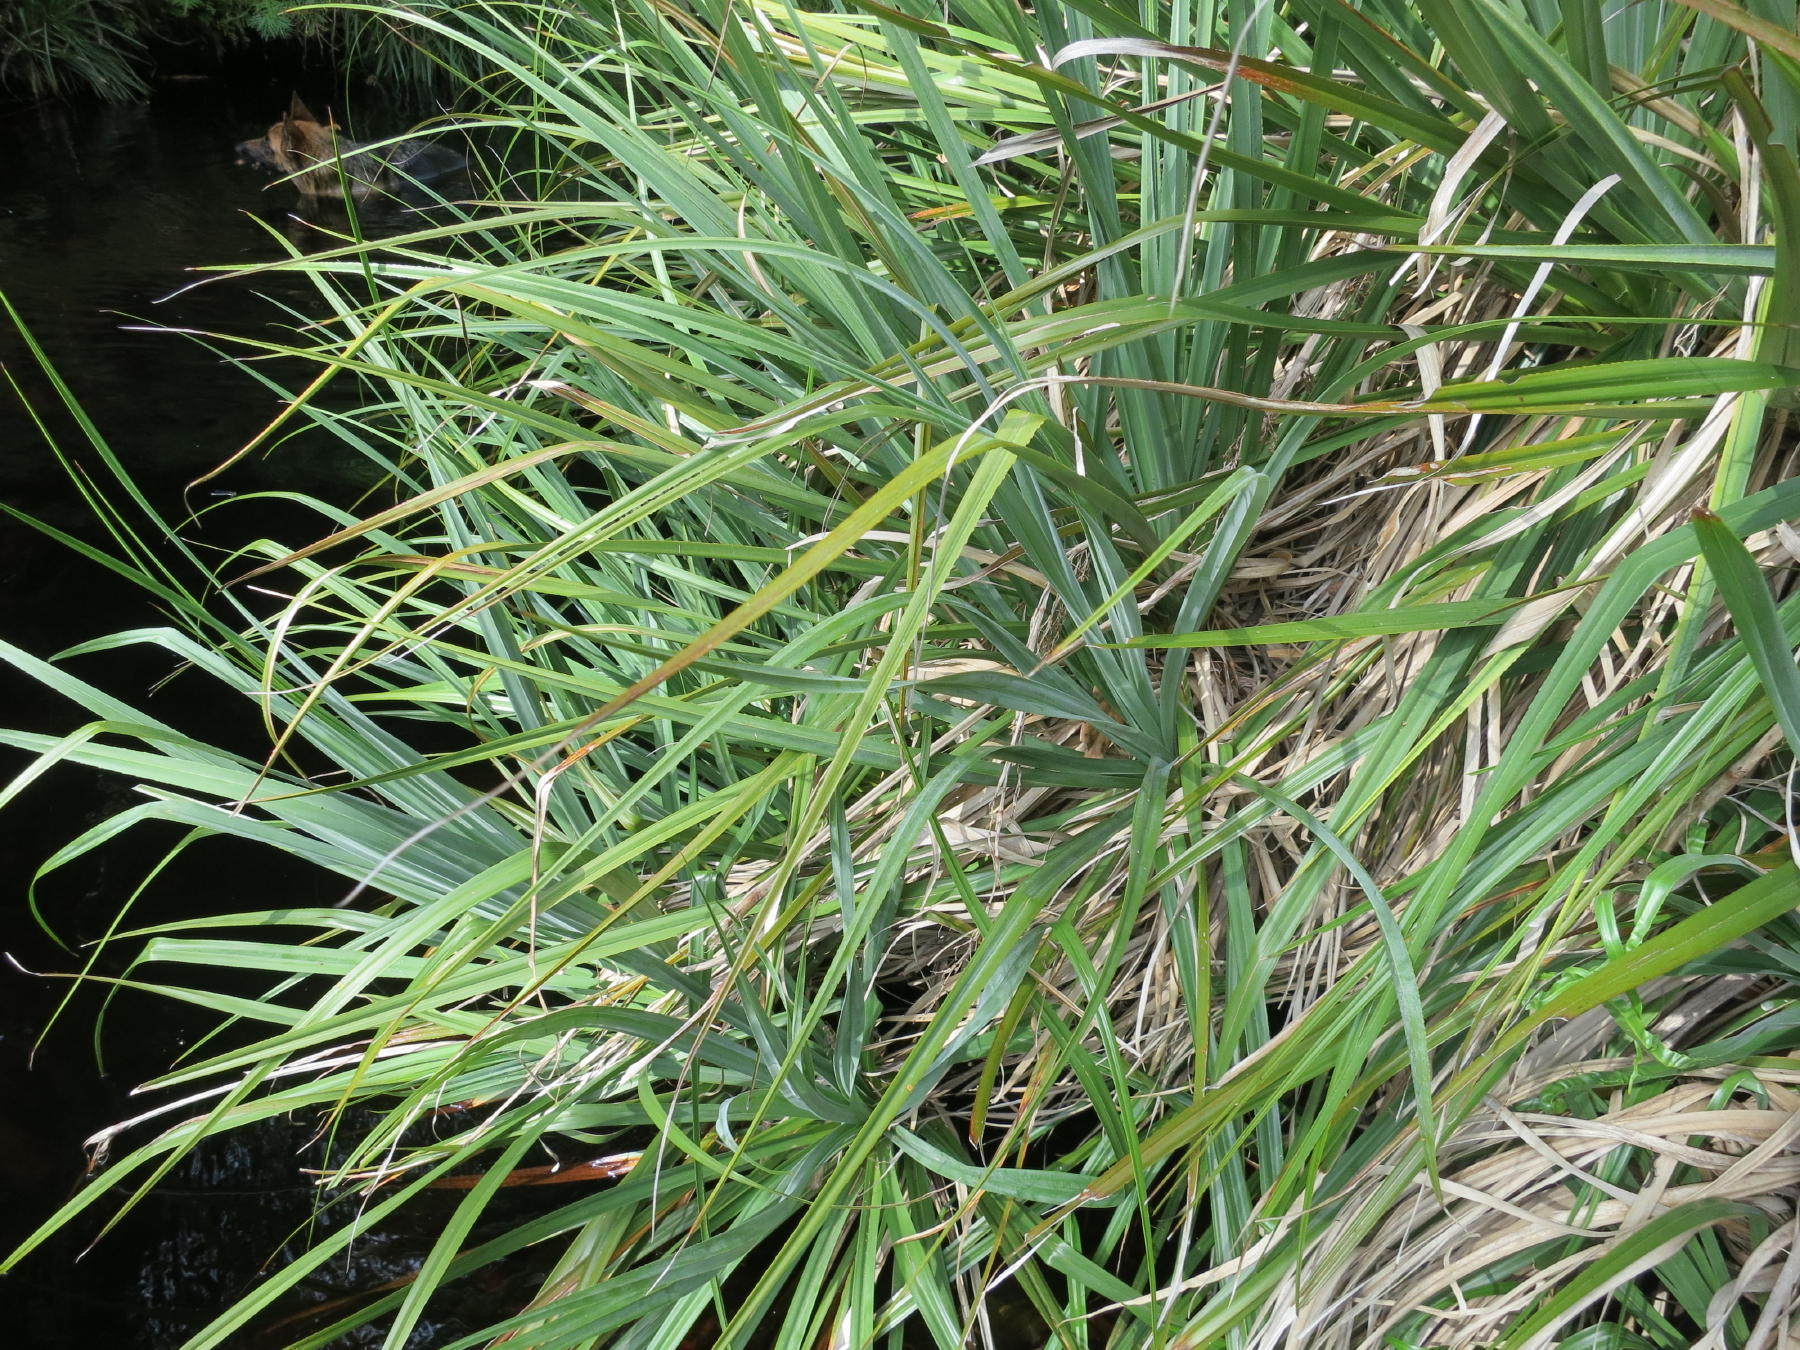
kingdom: Plantae
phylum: Tracheophyta
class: Liliopsida
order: Poales
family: Thurniaceae
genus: Prionium
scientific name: Prionium serratum
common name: Palmiet
